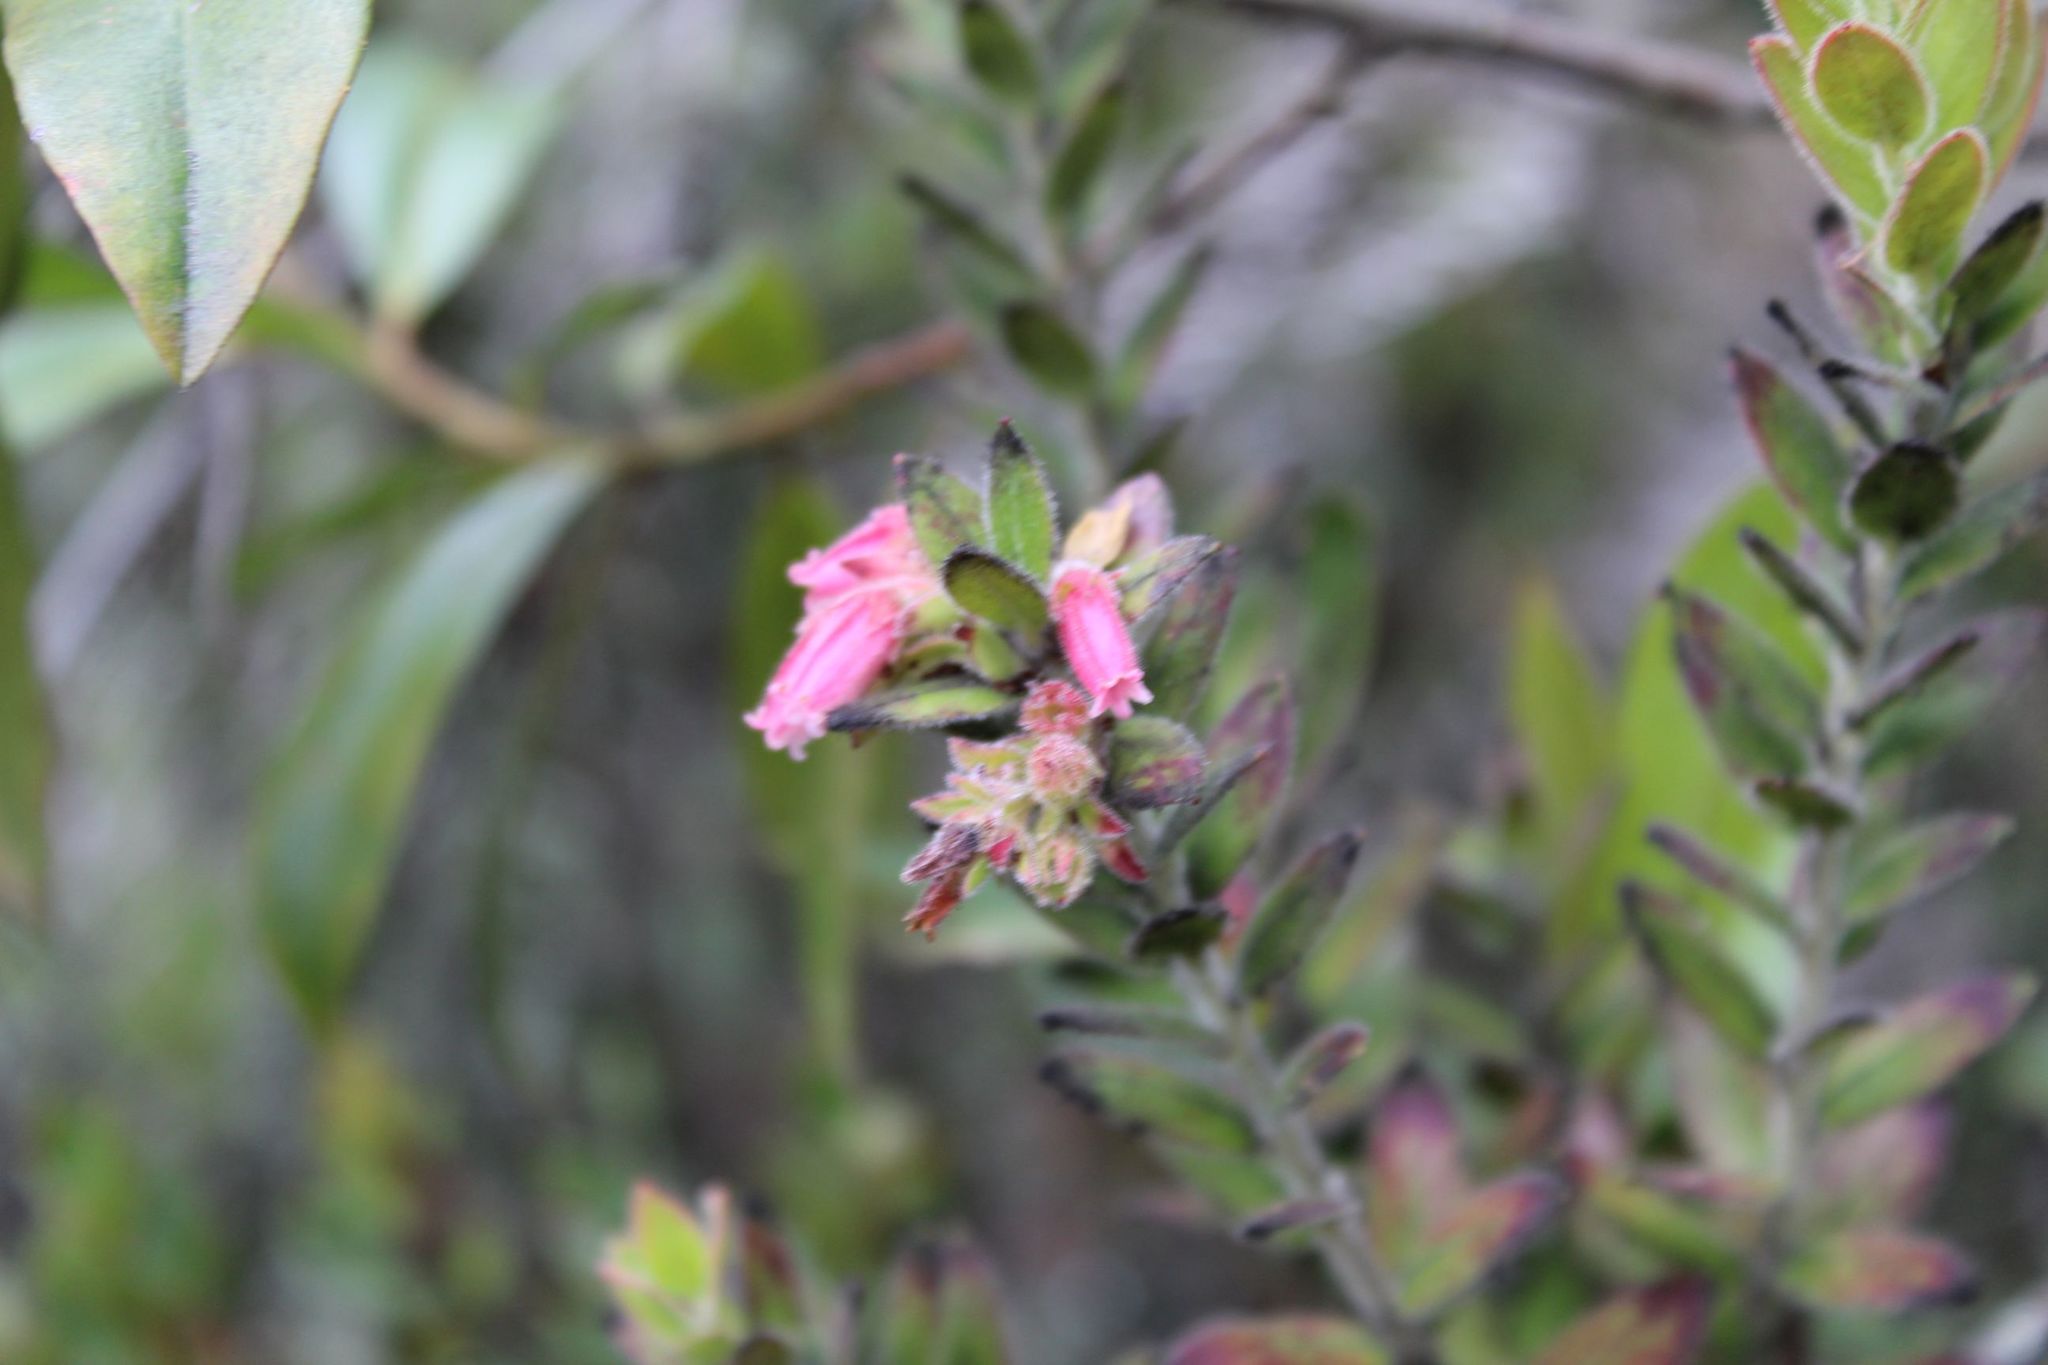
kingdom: Plantae
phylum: Tracheophyta
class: Magnoliopsida
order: Ericales
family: Ericaceae
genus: Gaylussacia
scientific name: Gaylussacia buxifolia
